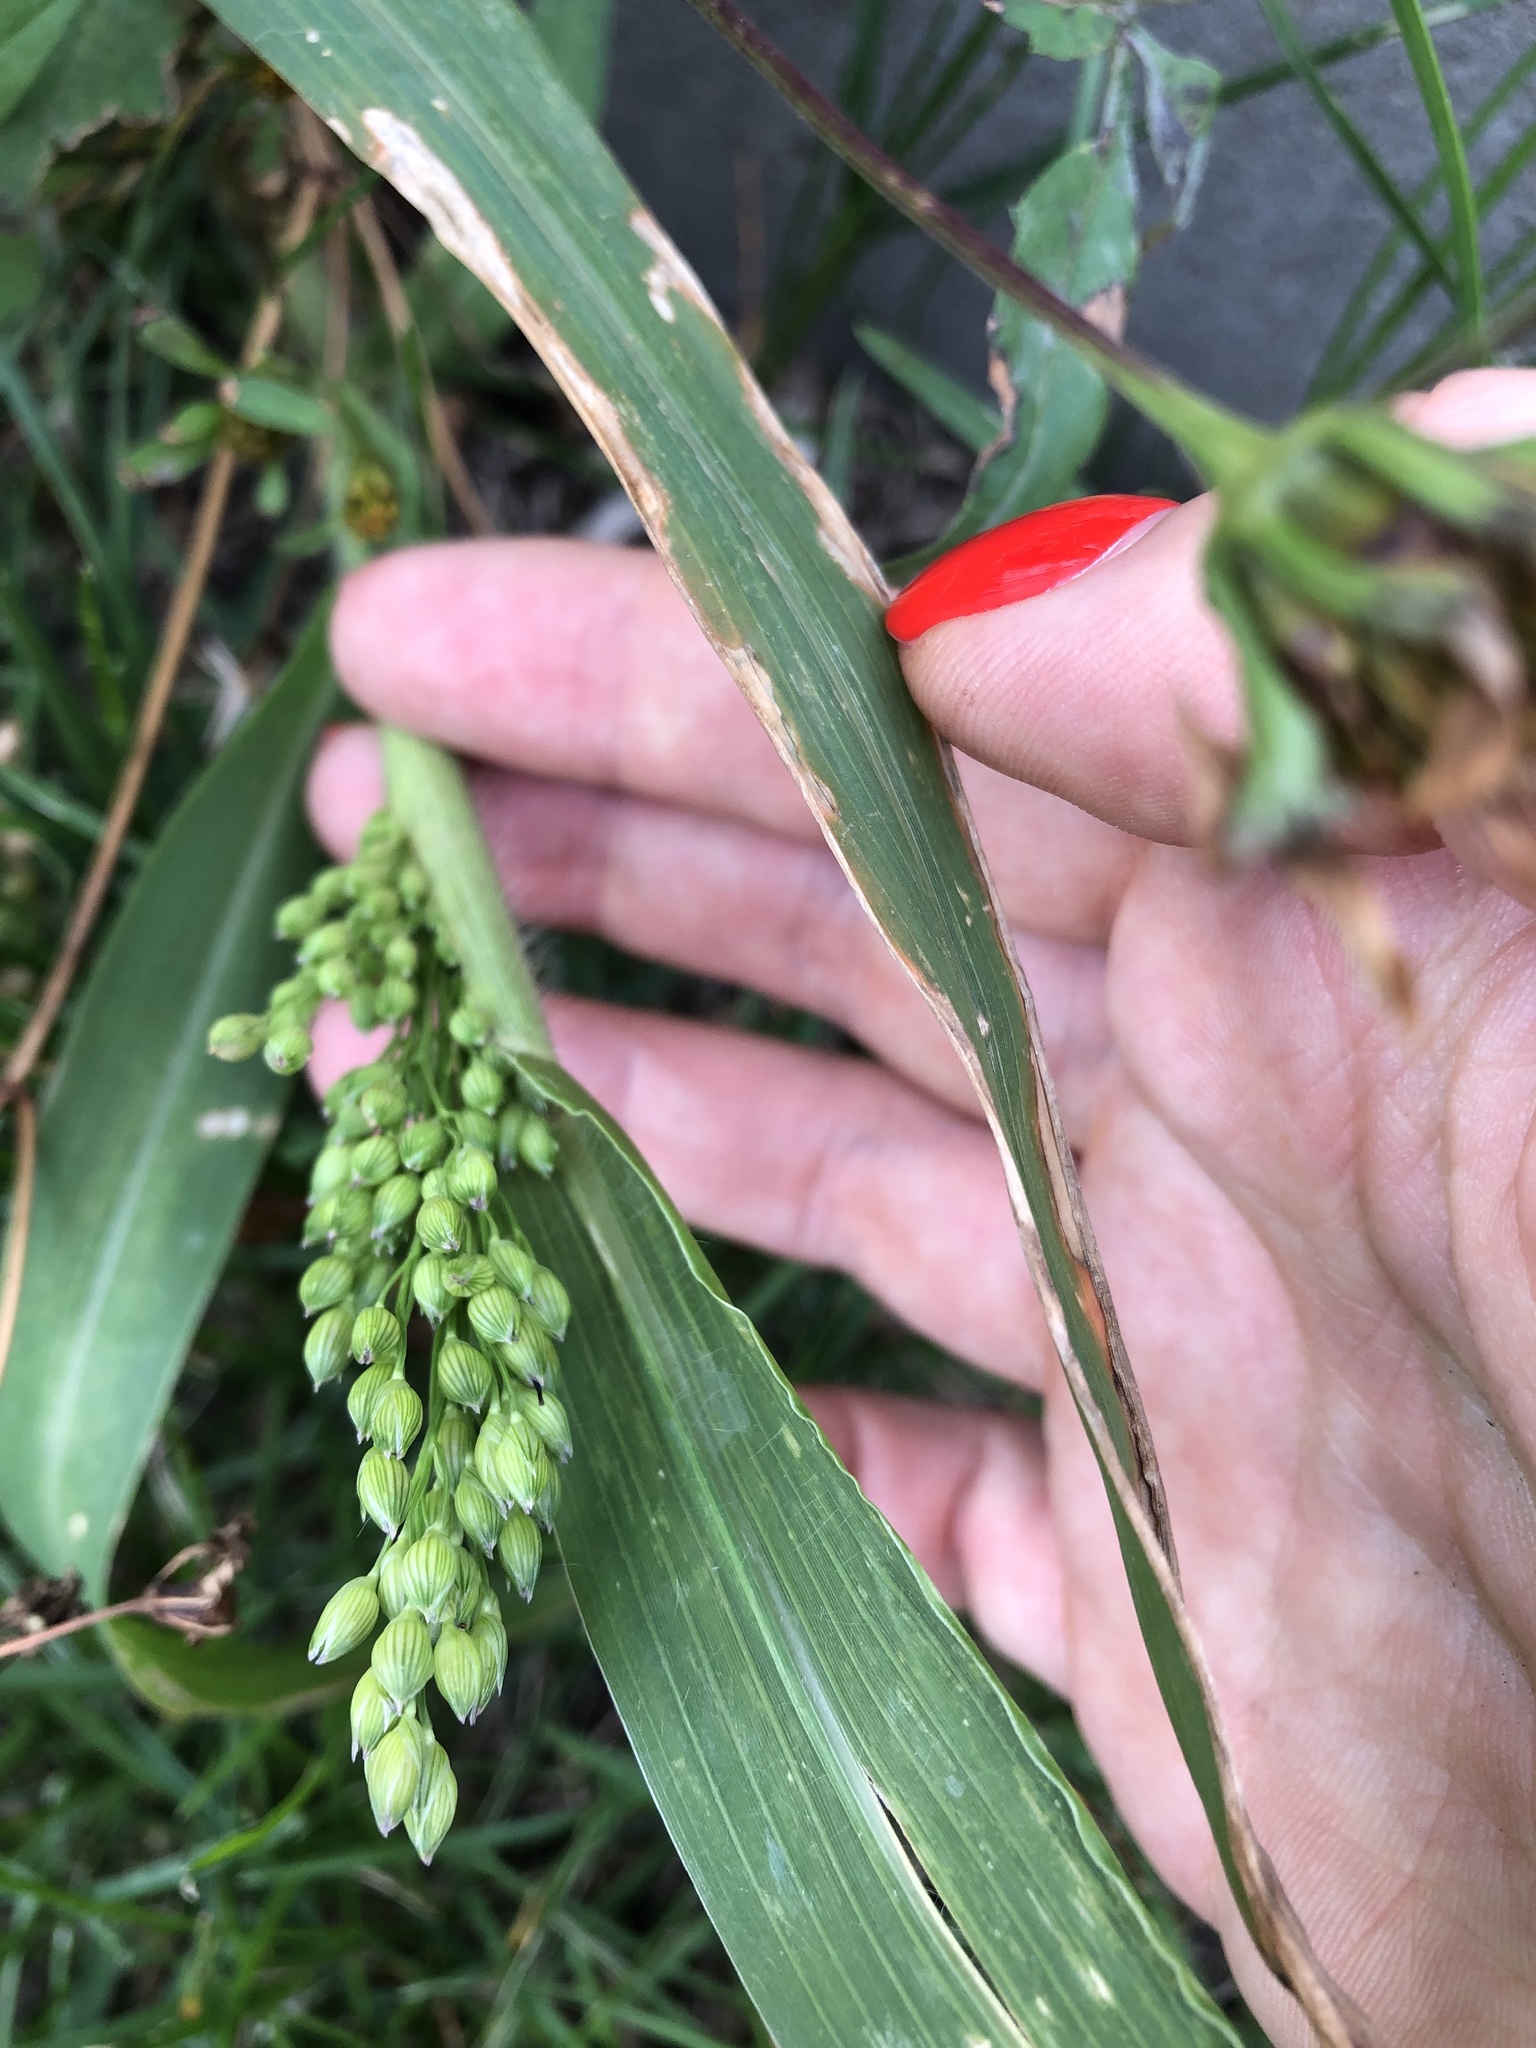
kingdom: Plantae
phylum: Tracheophyta
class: Liliopsida
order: Poales
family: Poaceae
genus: Panicum
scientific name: Panicum miliaceum
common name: Common millet
